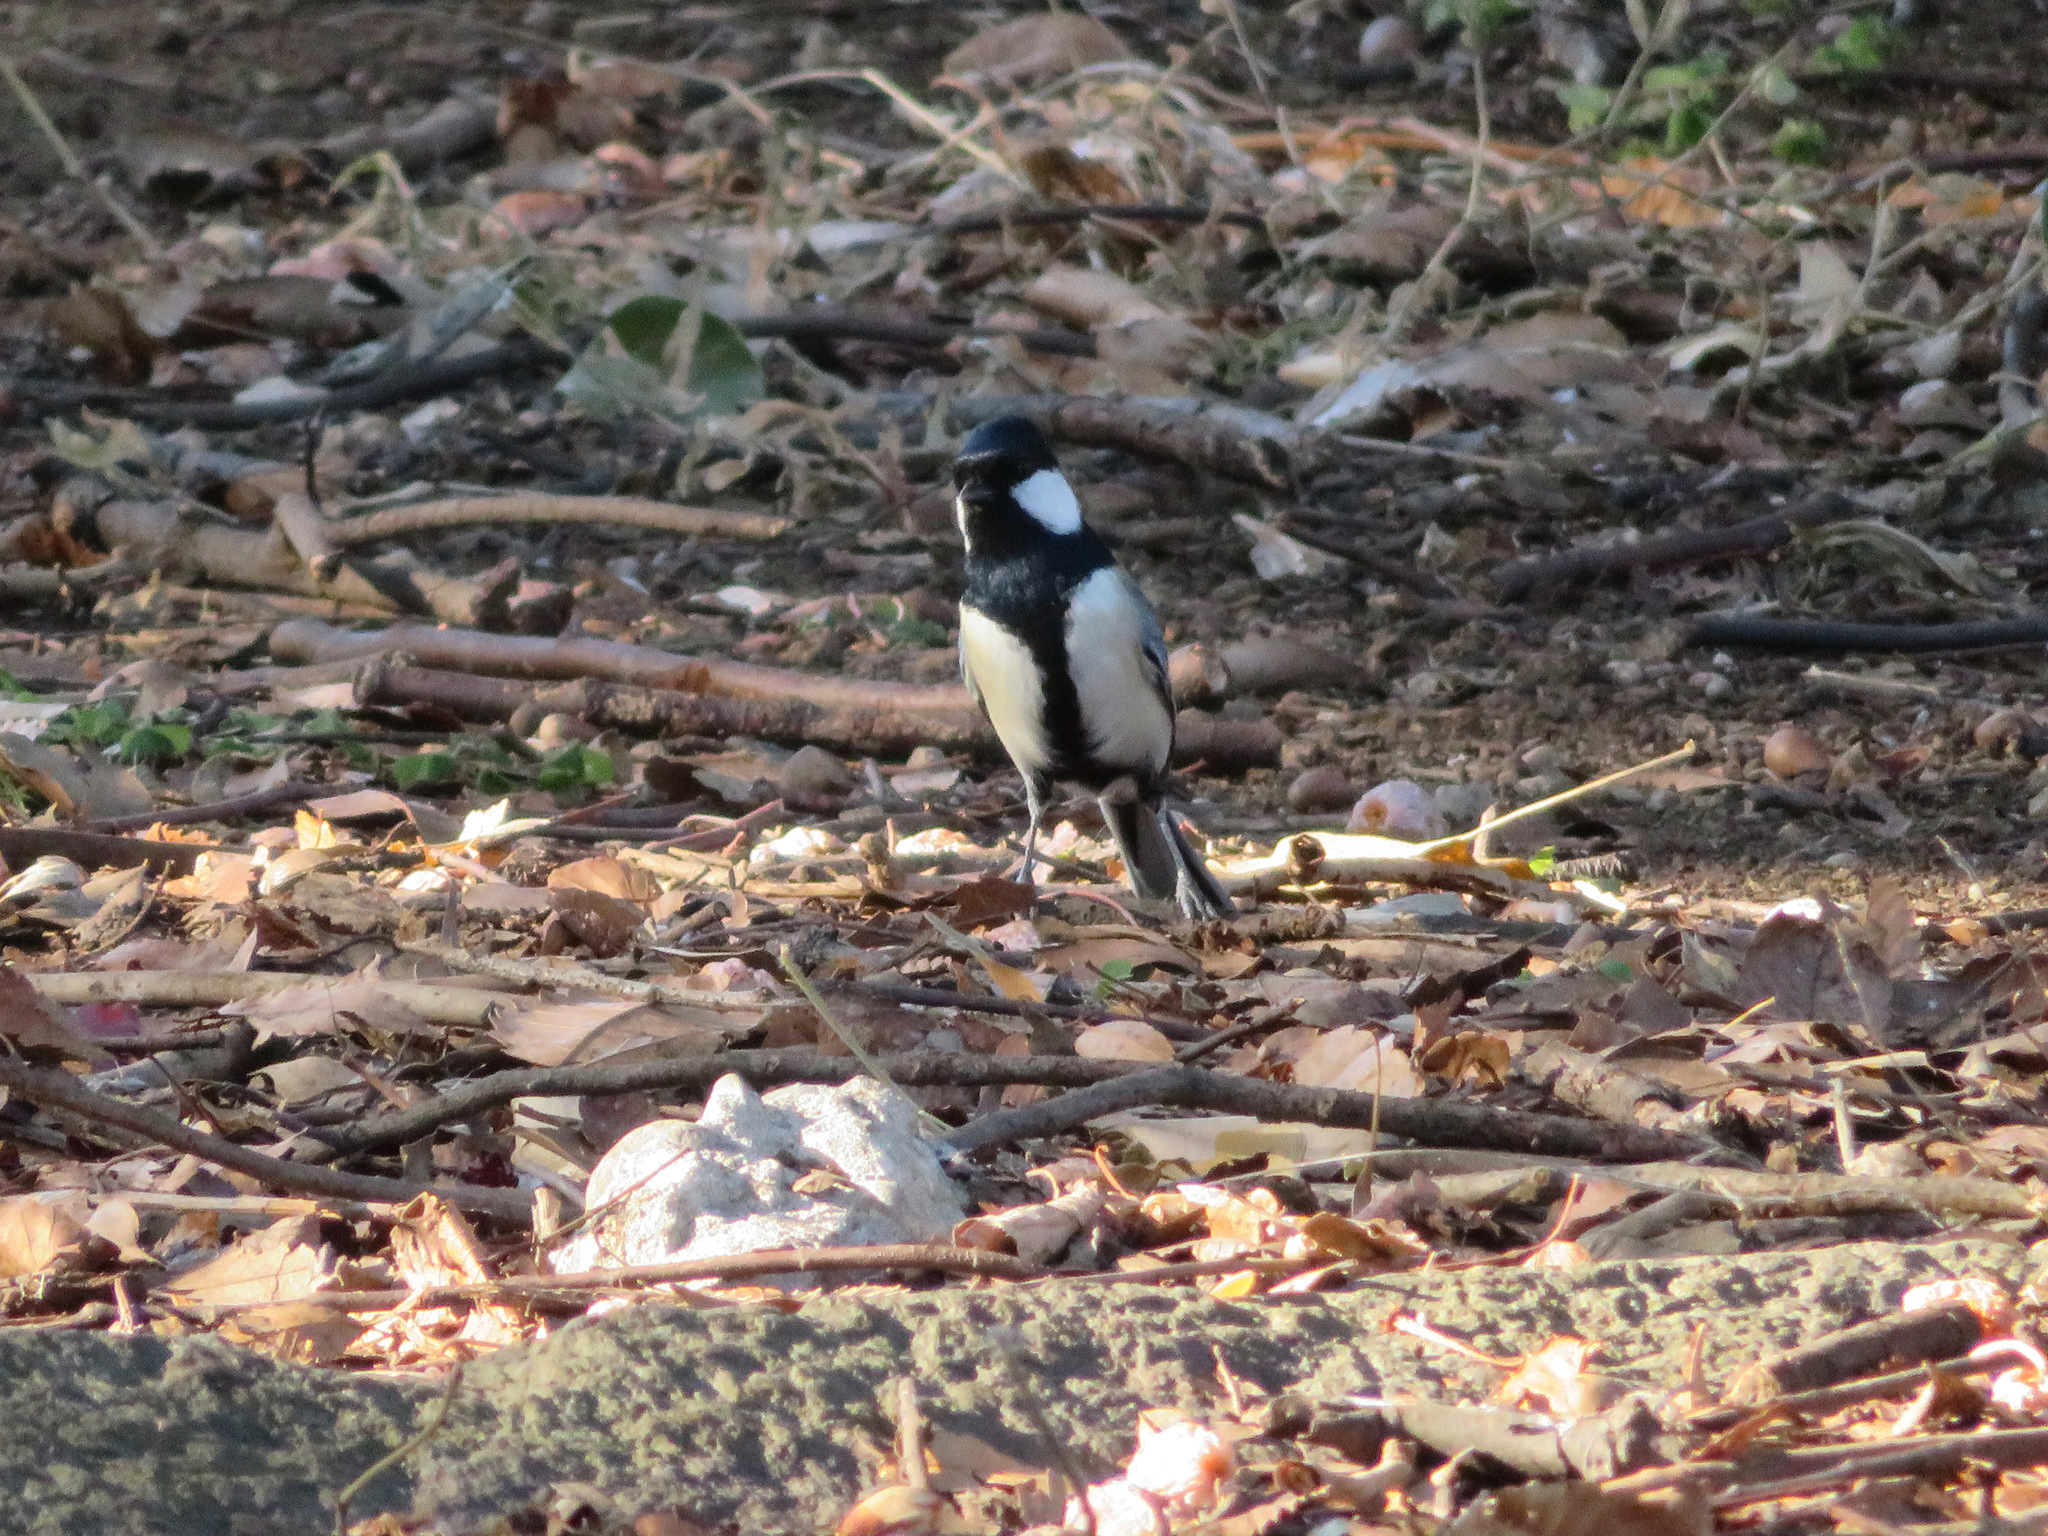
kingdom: Animalia
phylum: Chordata
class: Aves
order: Passeriformes
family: Paridae
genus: Parus
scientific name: Parus minor
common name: Japanese tit
